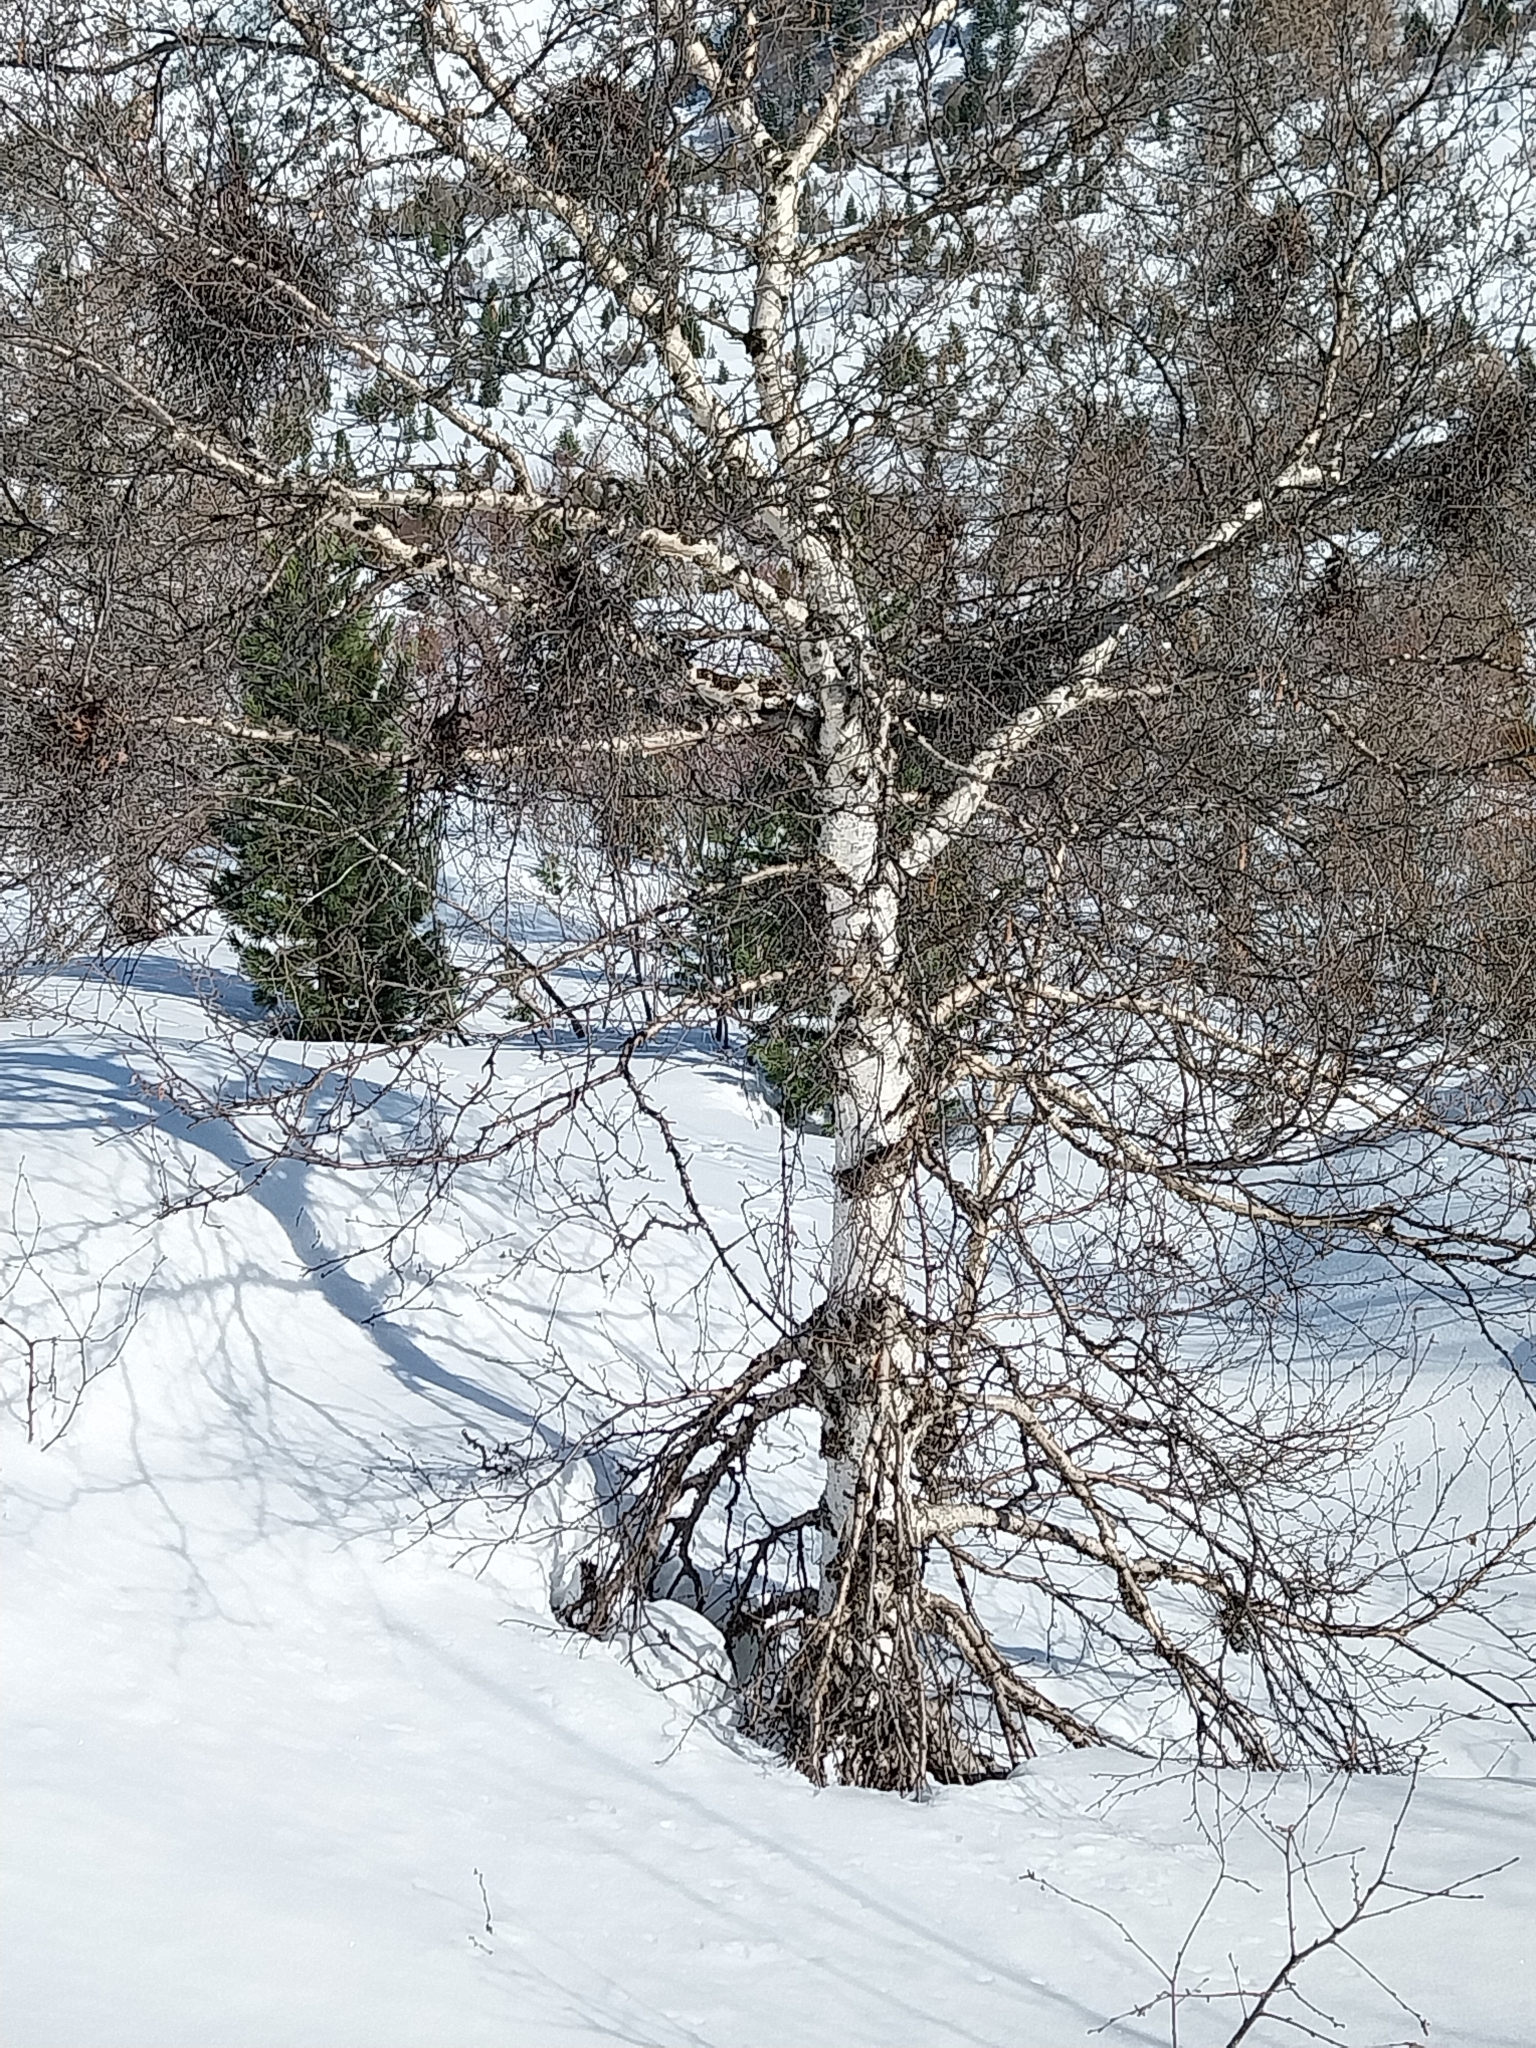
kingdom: Plantae
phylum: Tracheophyta
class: Magnoliopsida
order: Fagales
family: Betulaceae
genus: Betula
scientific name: Betula pendula
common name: Silver birch
